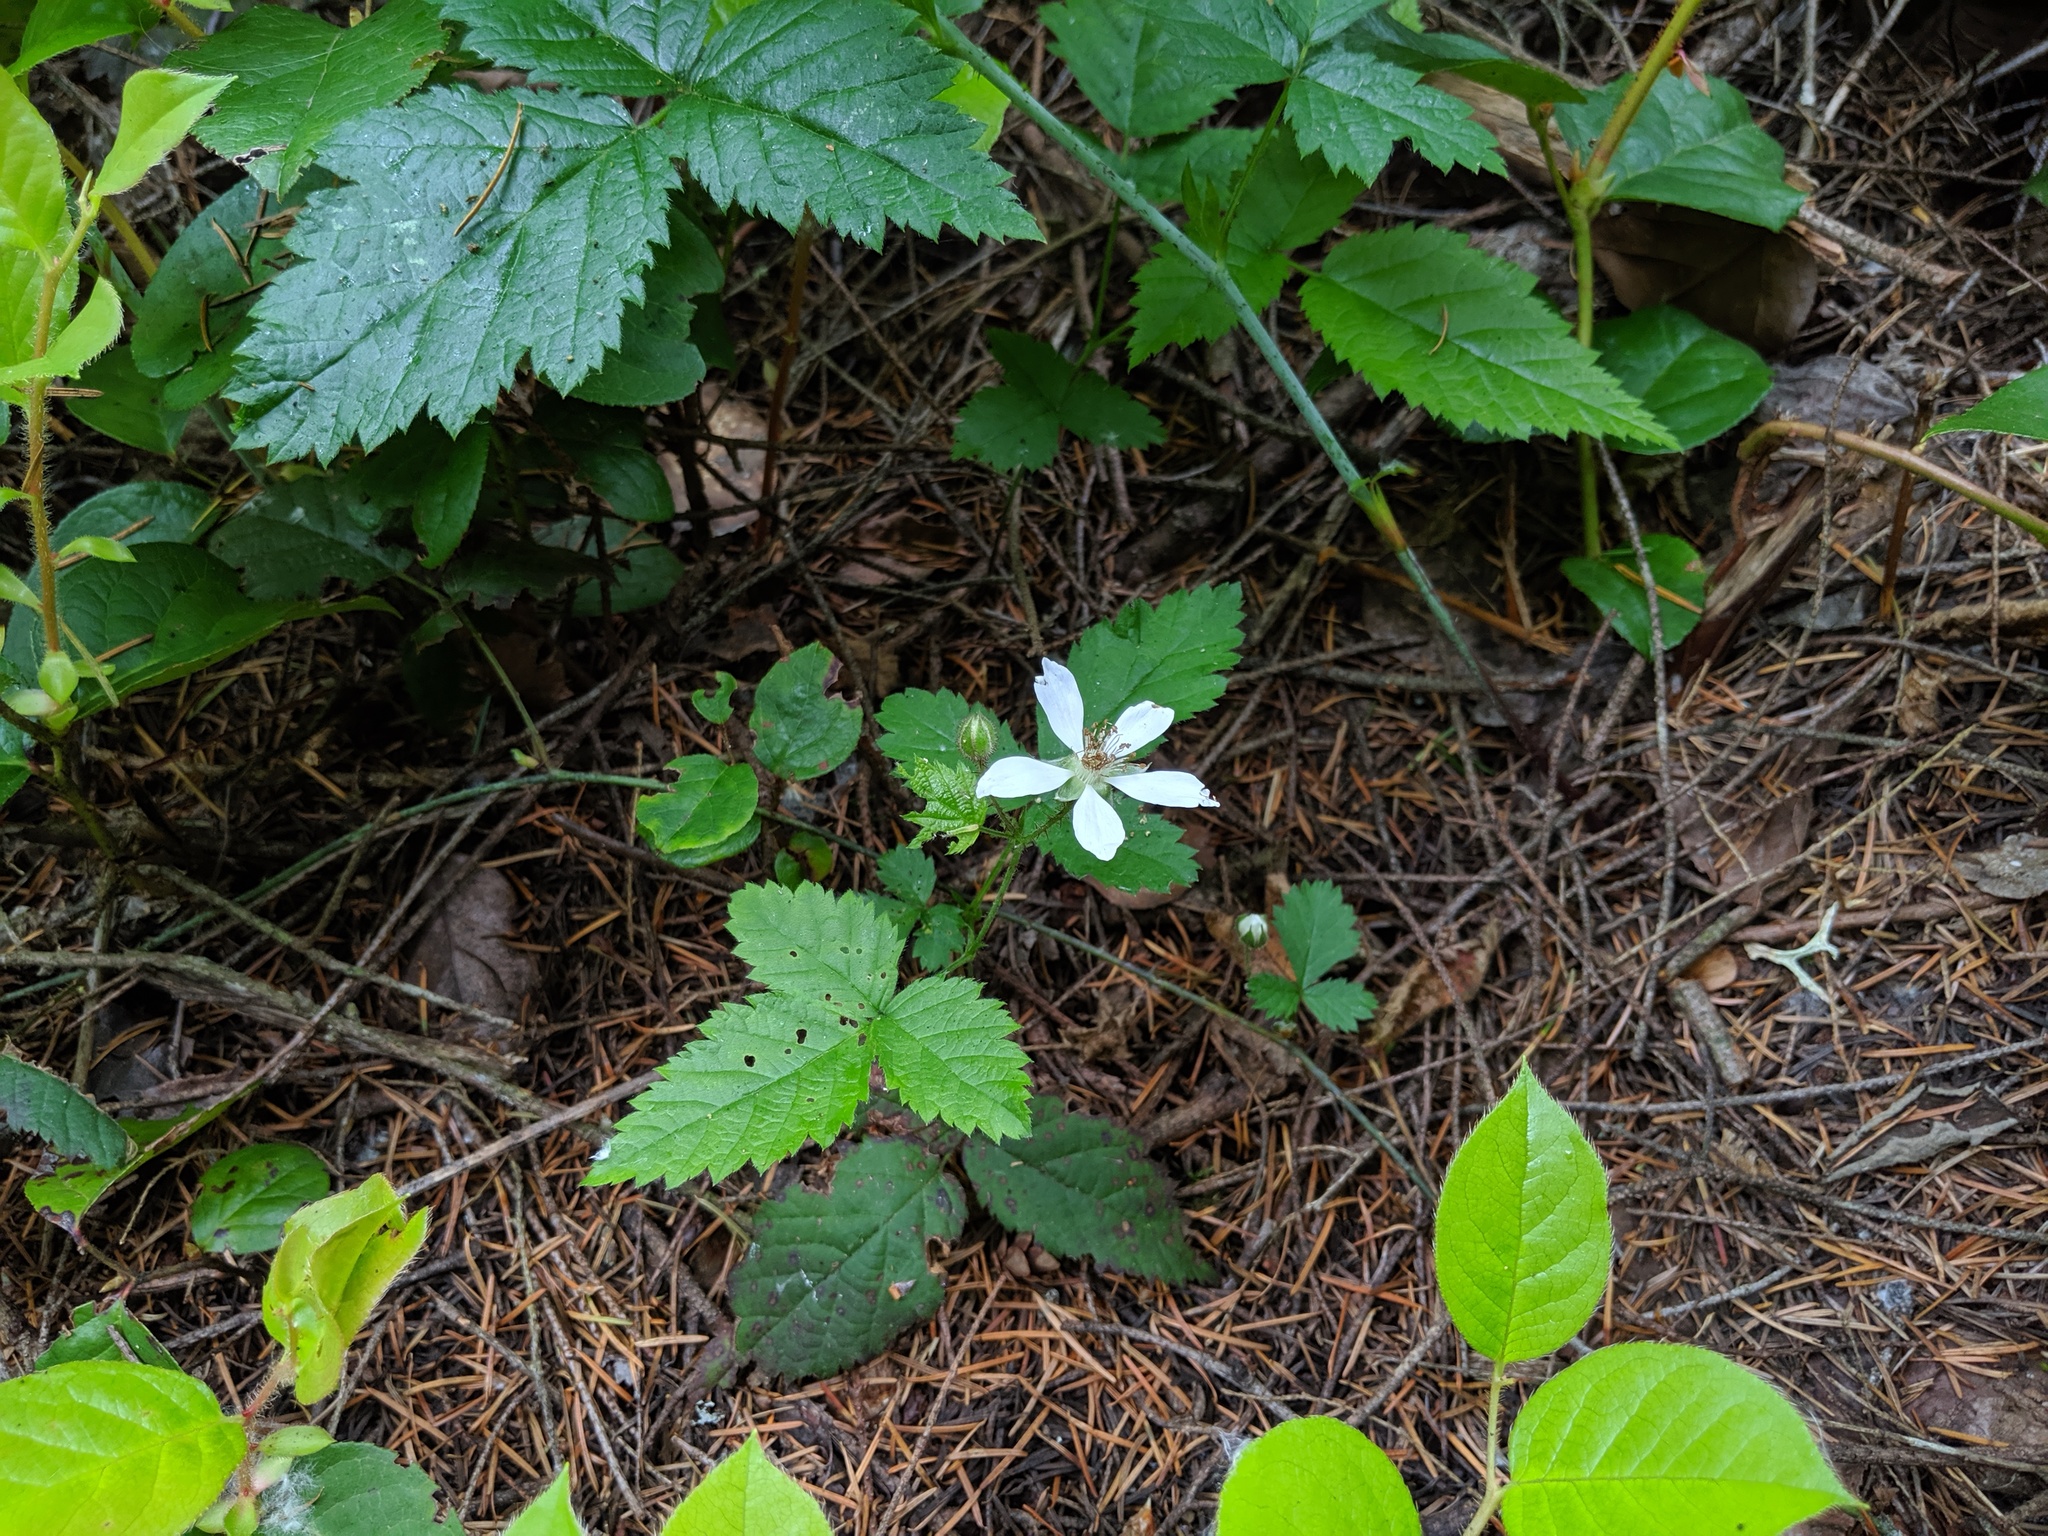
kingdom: Plantae
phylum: Tracheophyta
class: Magnoliopsida
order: Rosales
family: Rosaceae
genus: Rubus
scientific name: Rubus ursinus
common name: Pacific blackberry
